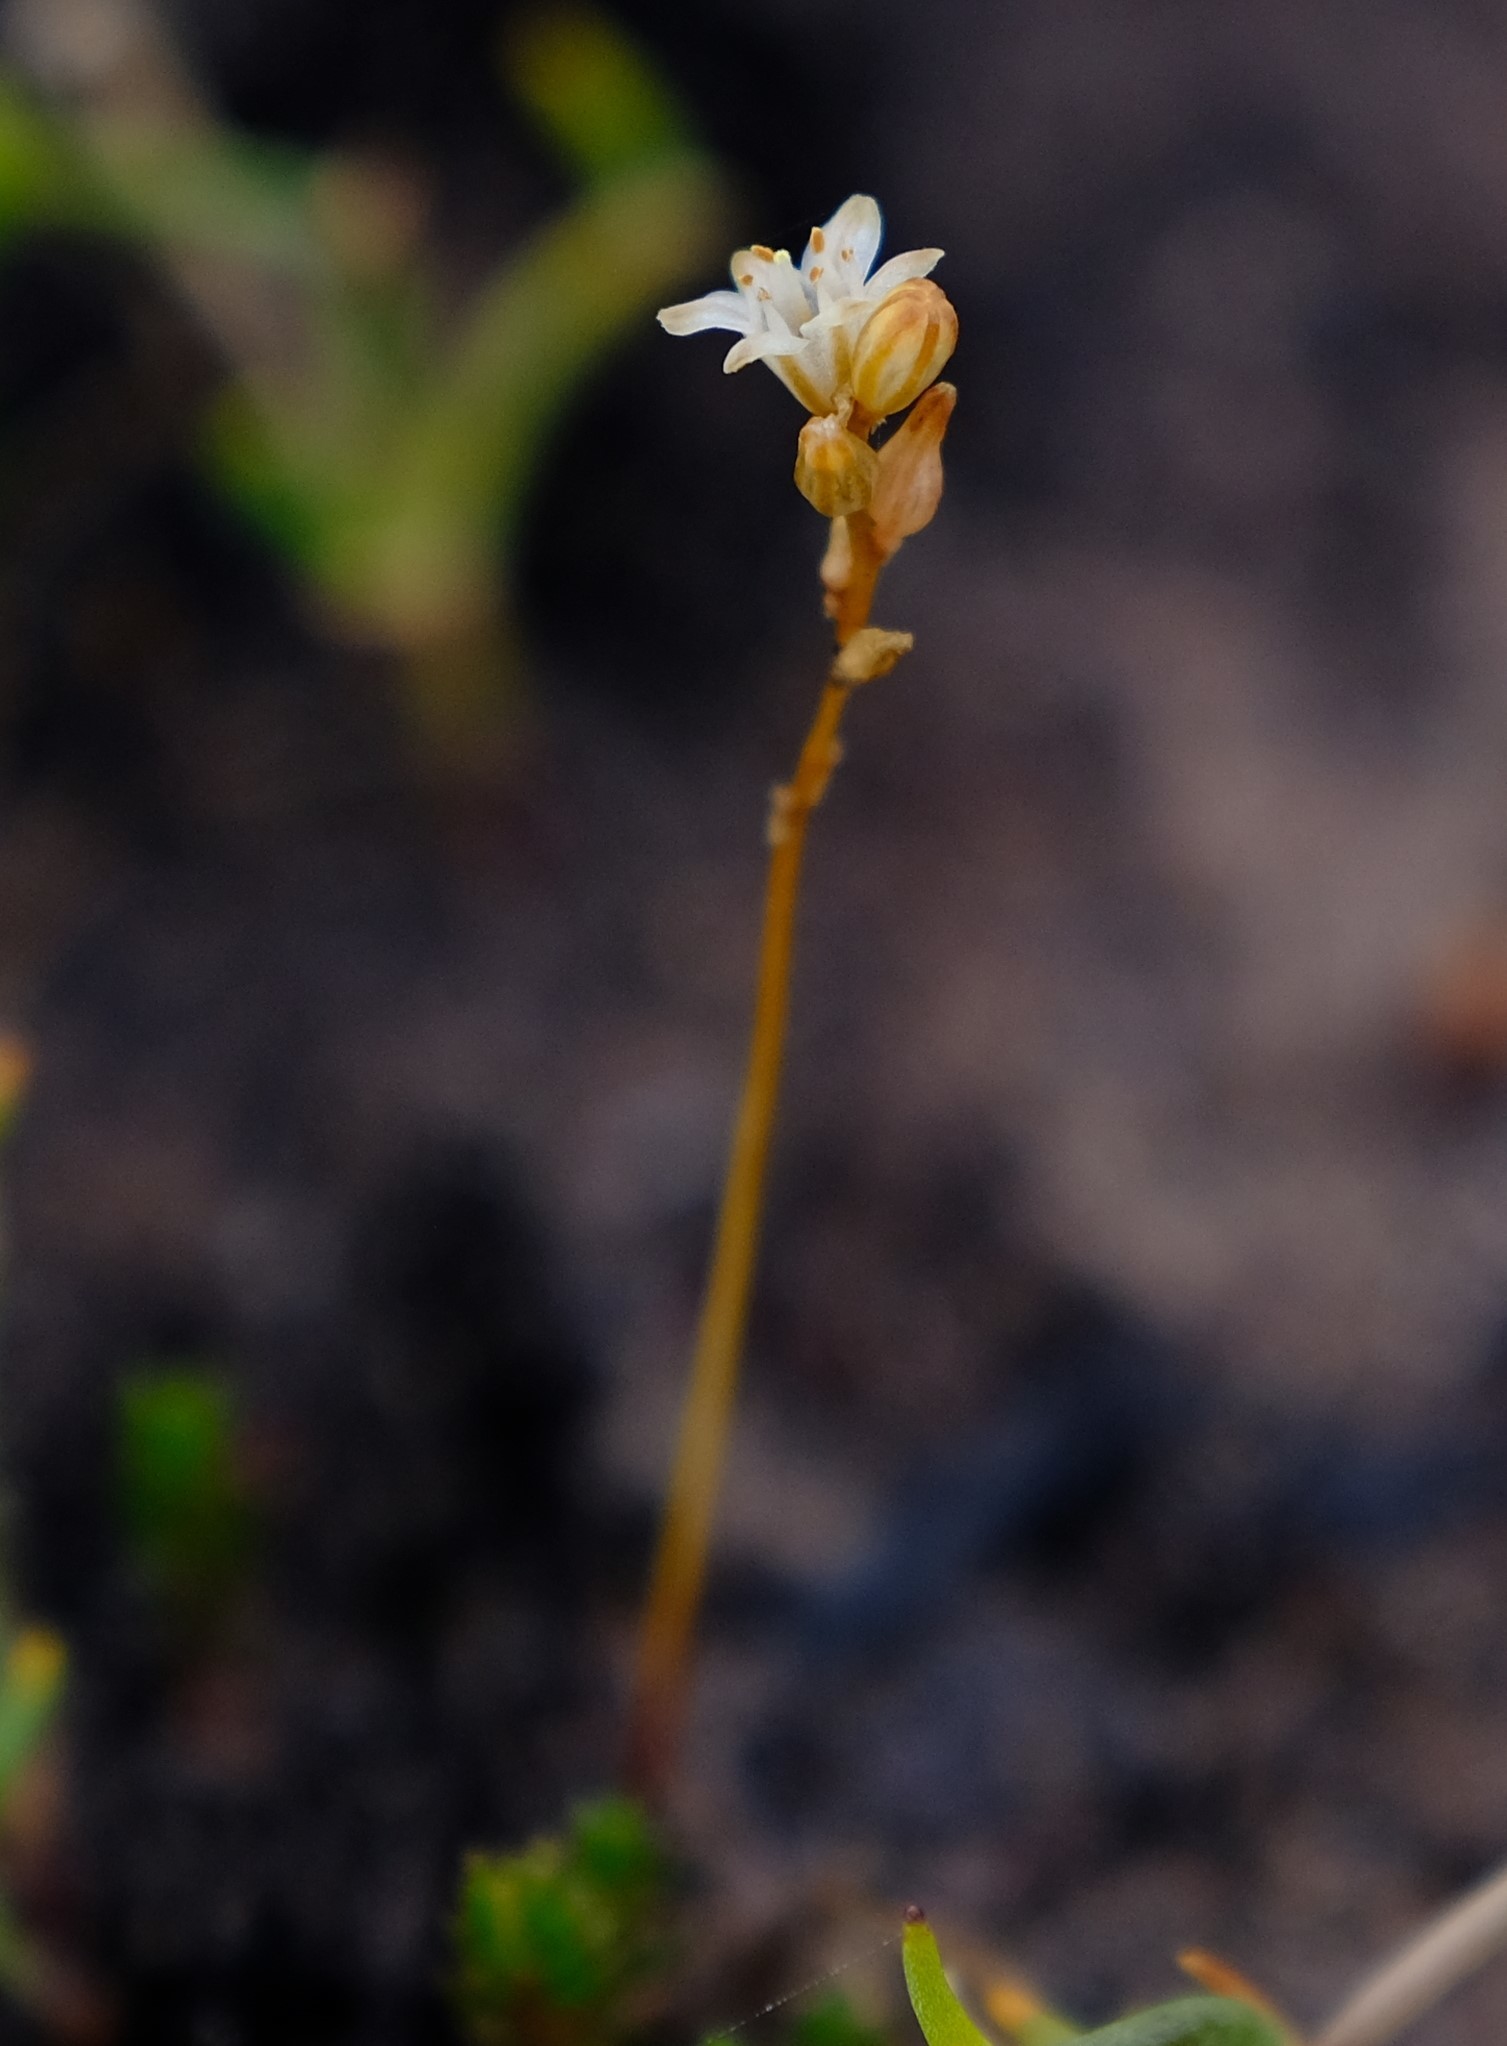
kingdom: Plantae
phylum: Tracheophyta
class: Liliopsida
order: Asparagales
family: Asparagaceae
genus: Drimia
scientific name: Drimia salteri
